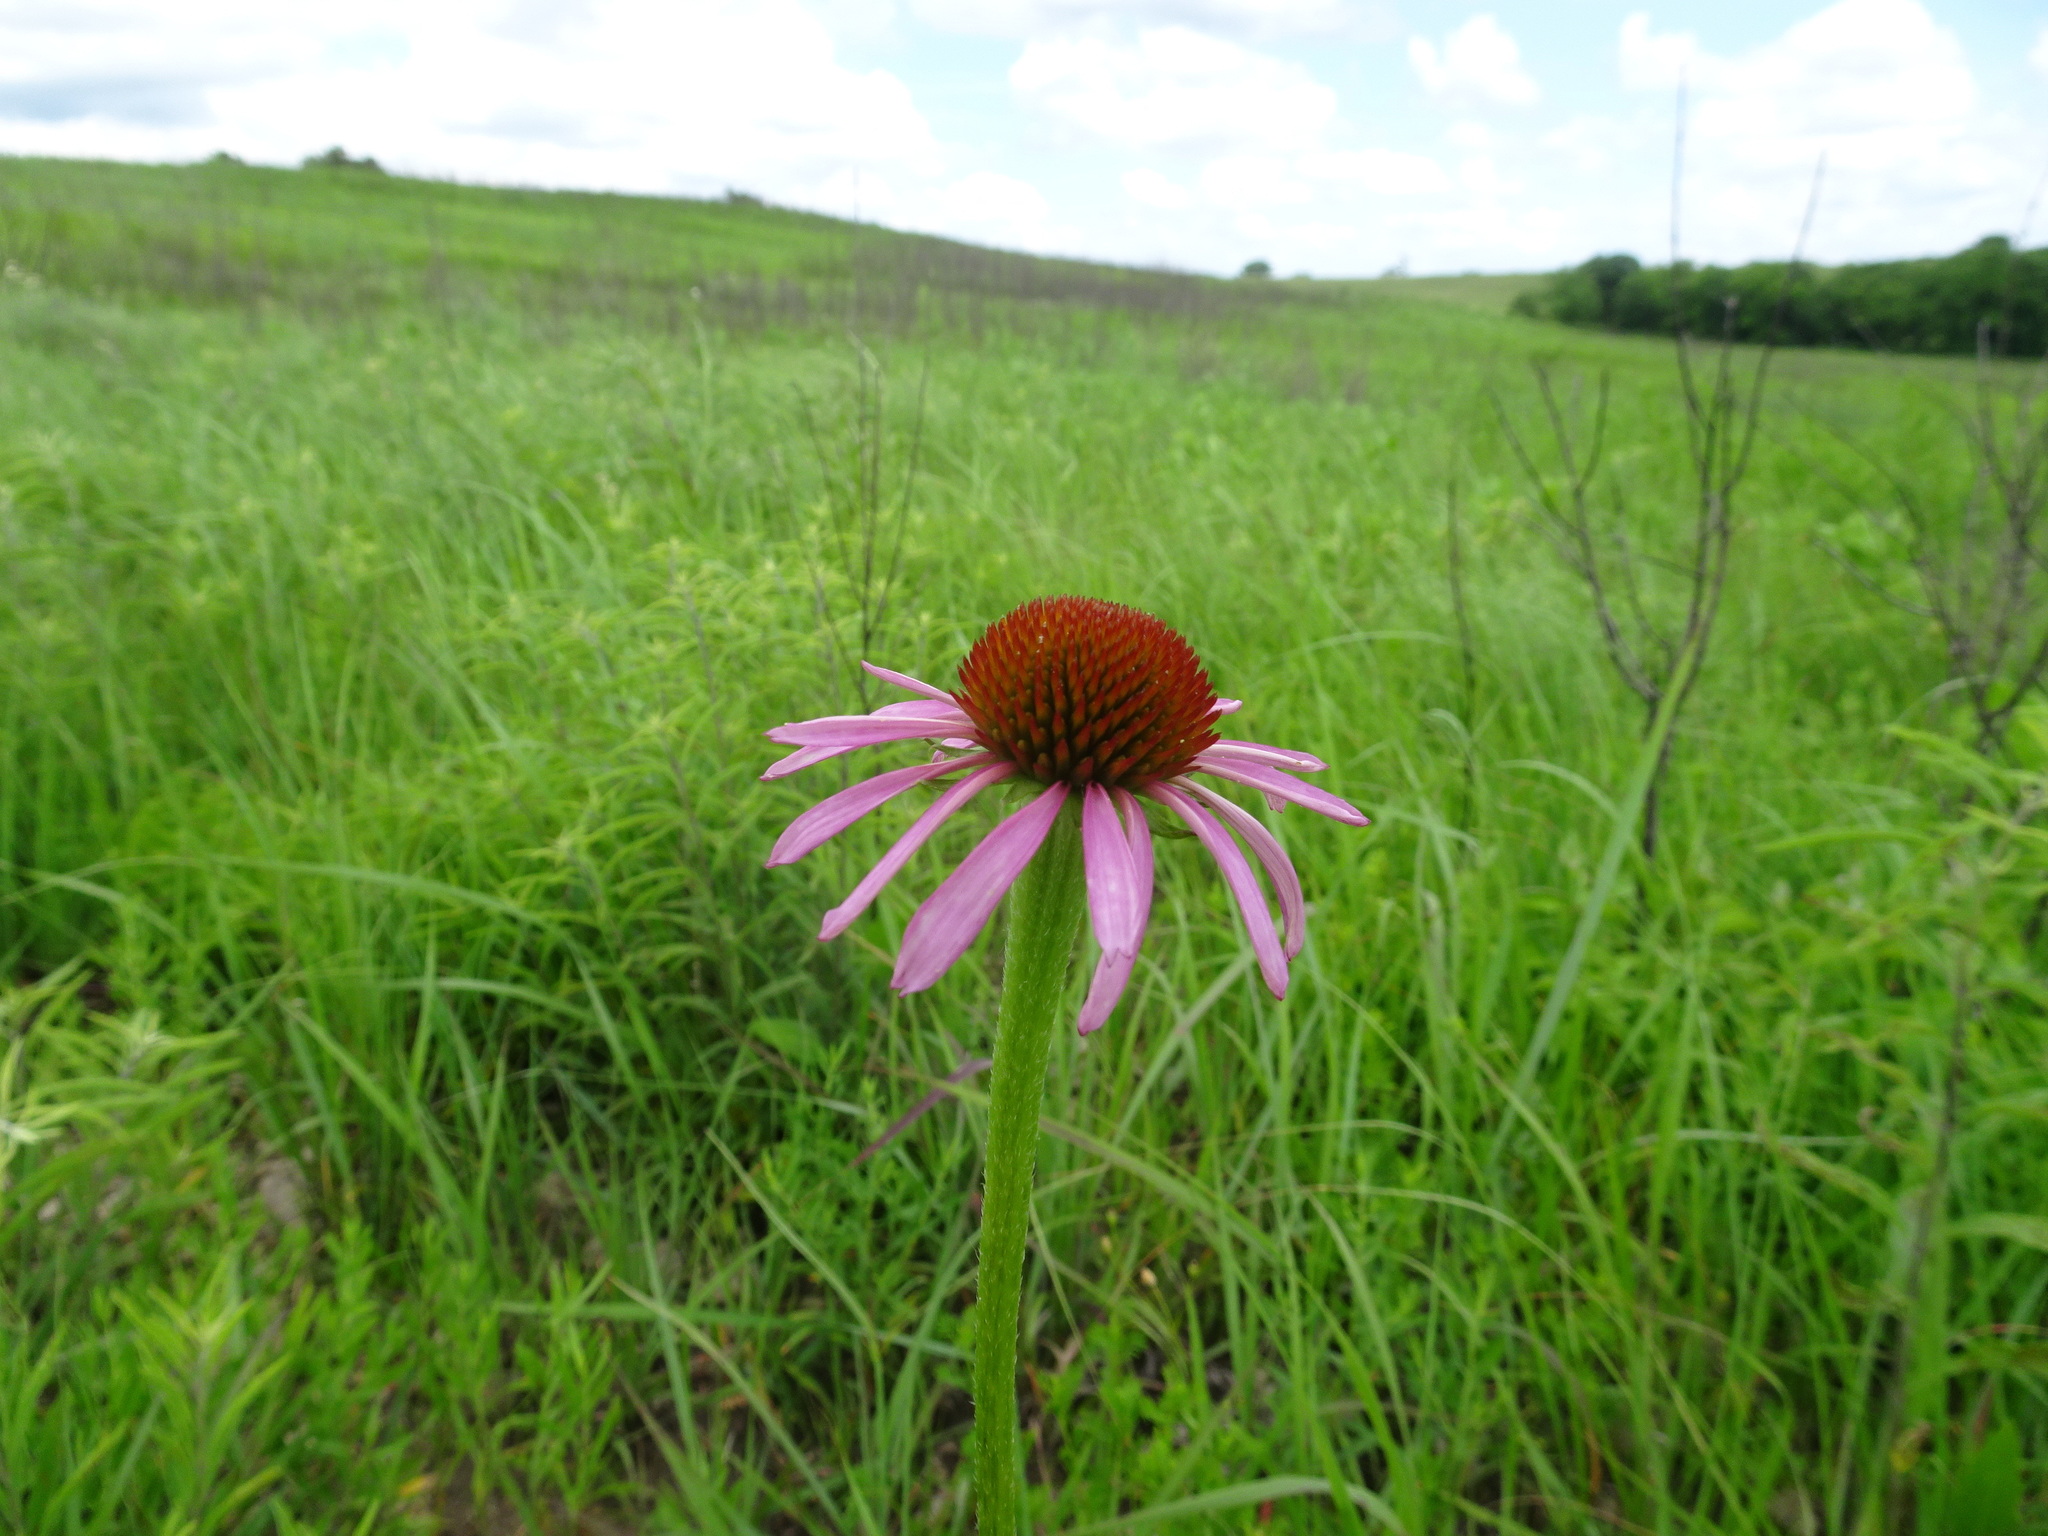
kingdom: Plantae
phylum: Tracheophyta
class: Magnoliopsida
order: Asterales
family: Asteraceae
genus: Echinacea
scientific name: Echinacea atrorubens
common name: Topeka purple-coneflower
